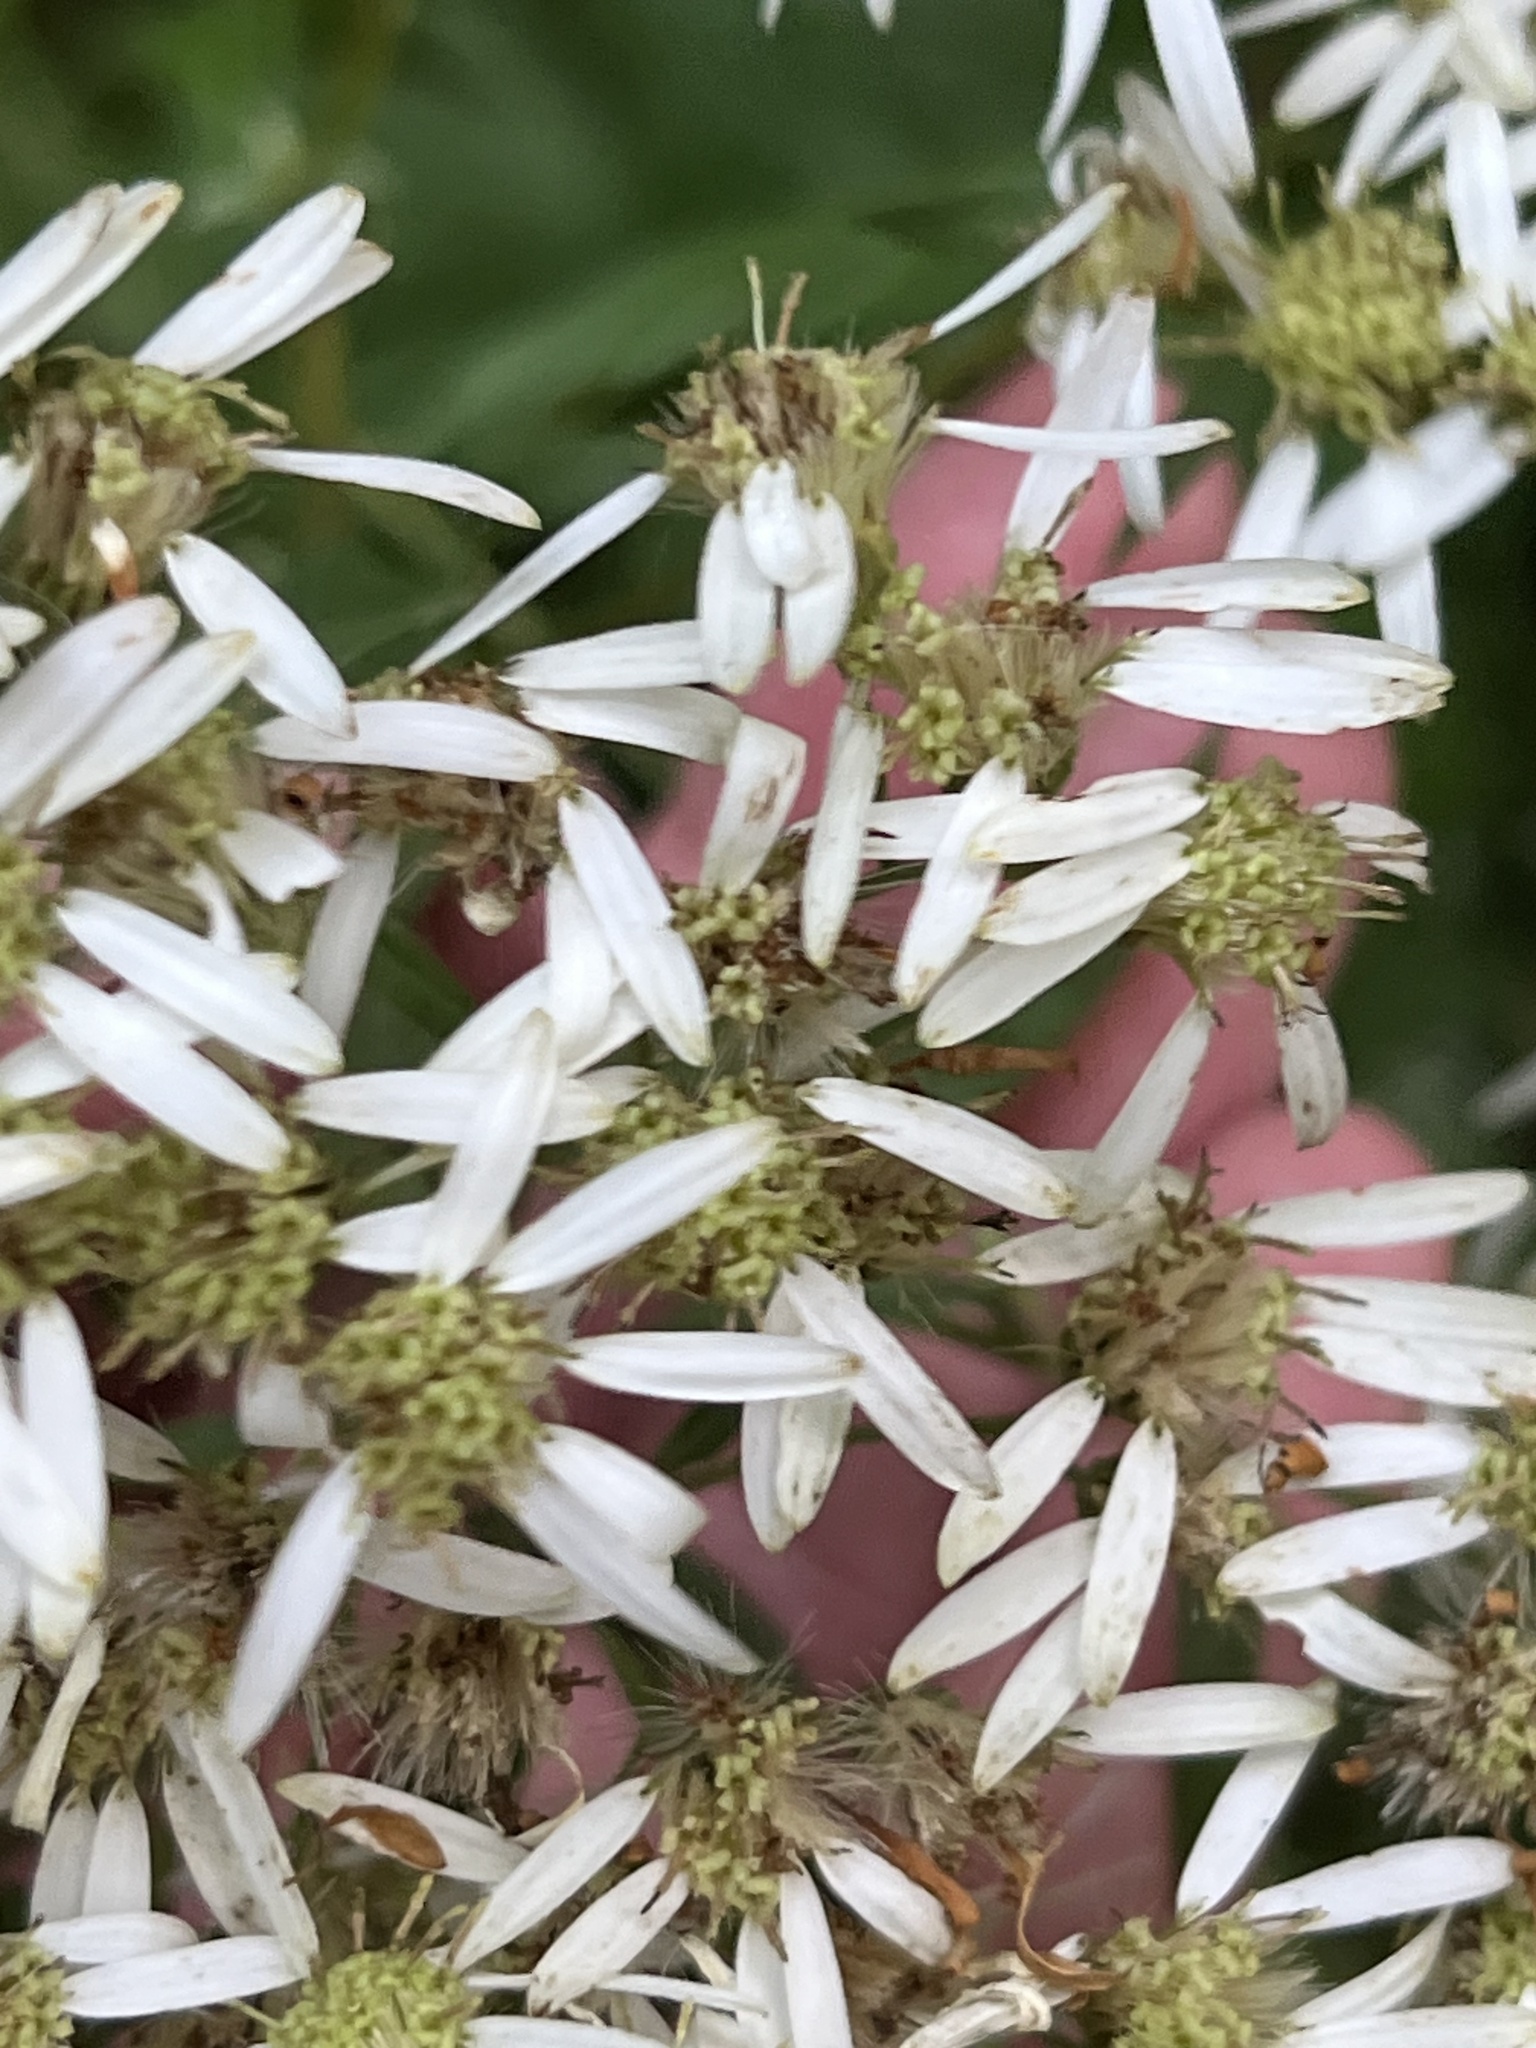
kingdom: Plantae
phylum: Tracheophyta
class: Magnoliopsida
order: Asterales
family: Asteraceae
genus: Doellingeria
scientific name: Doellingeria umbellata
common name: Flat-top white aster
